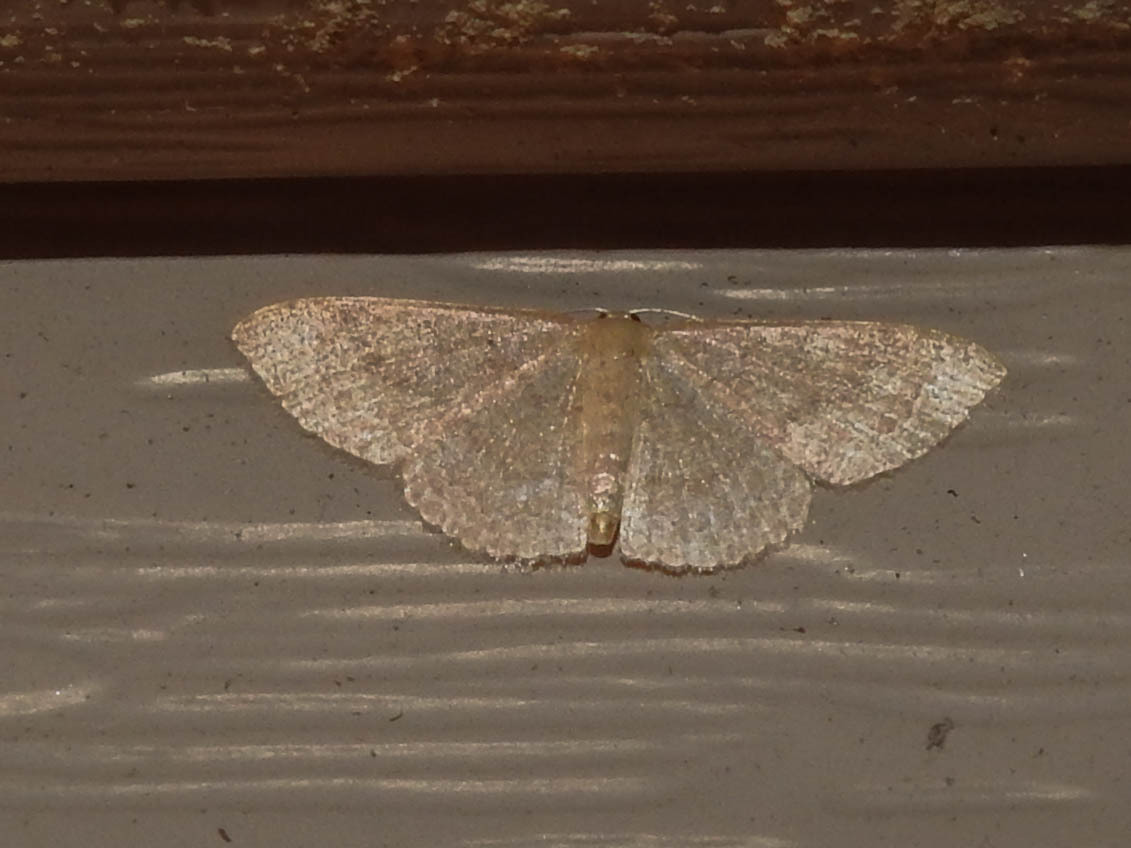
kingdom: Animalia
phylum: Arthropoda
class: Insecta
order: Lepidoptera
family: Geometridae
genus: Pleuroprucha
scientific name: Pleuroprucha insulsaria
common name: Common tan wave
